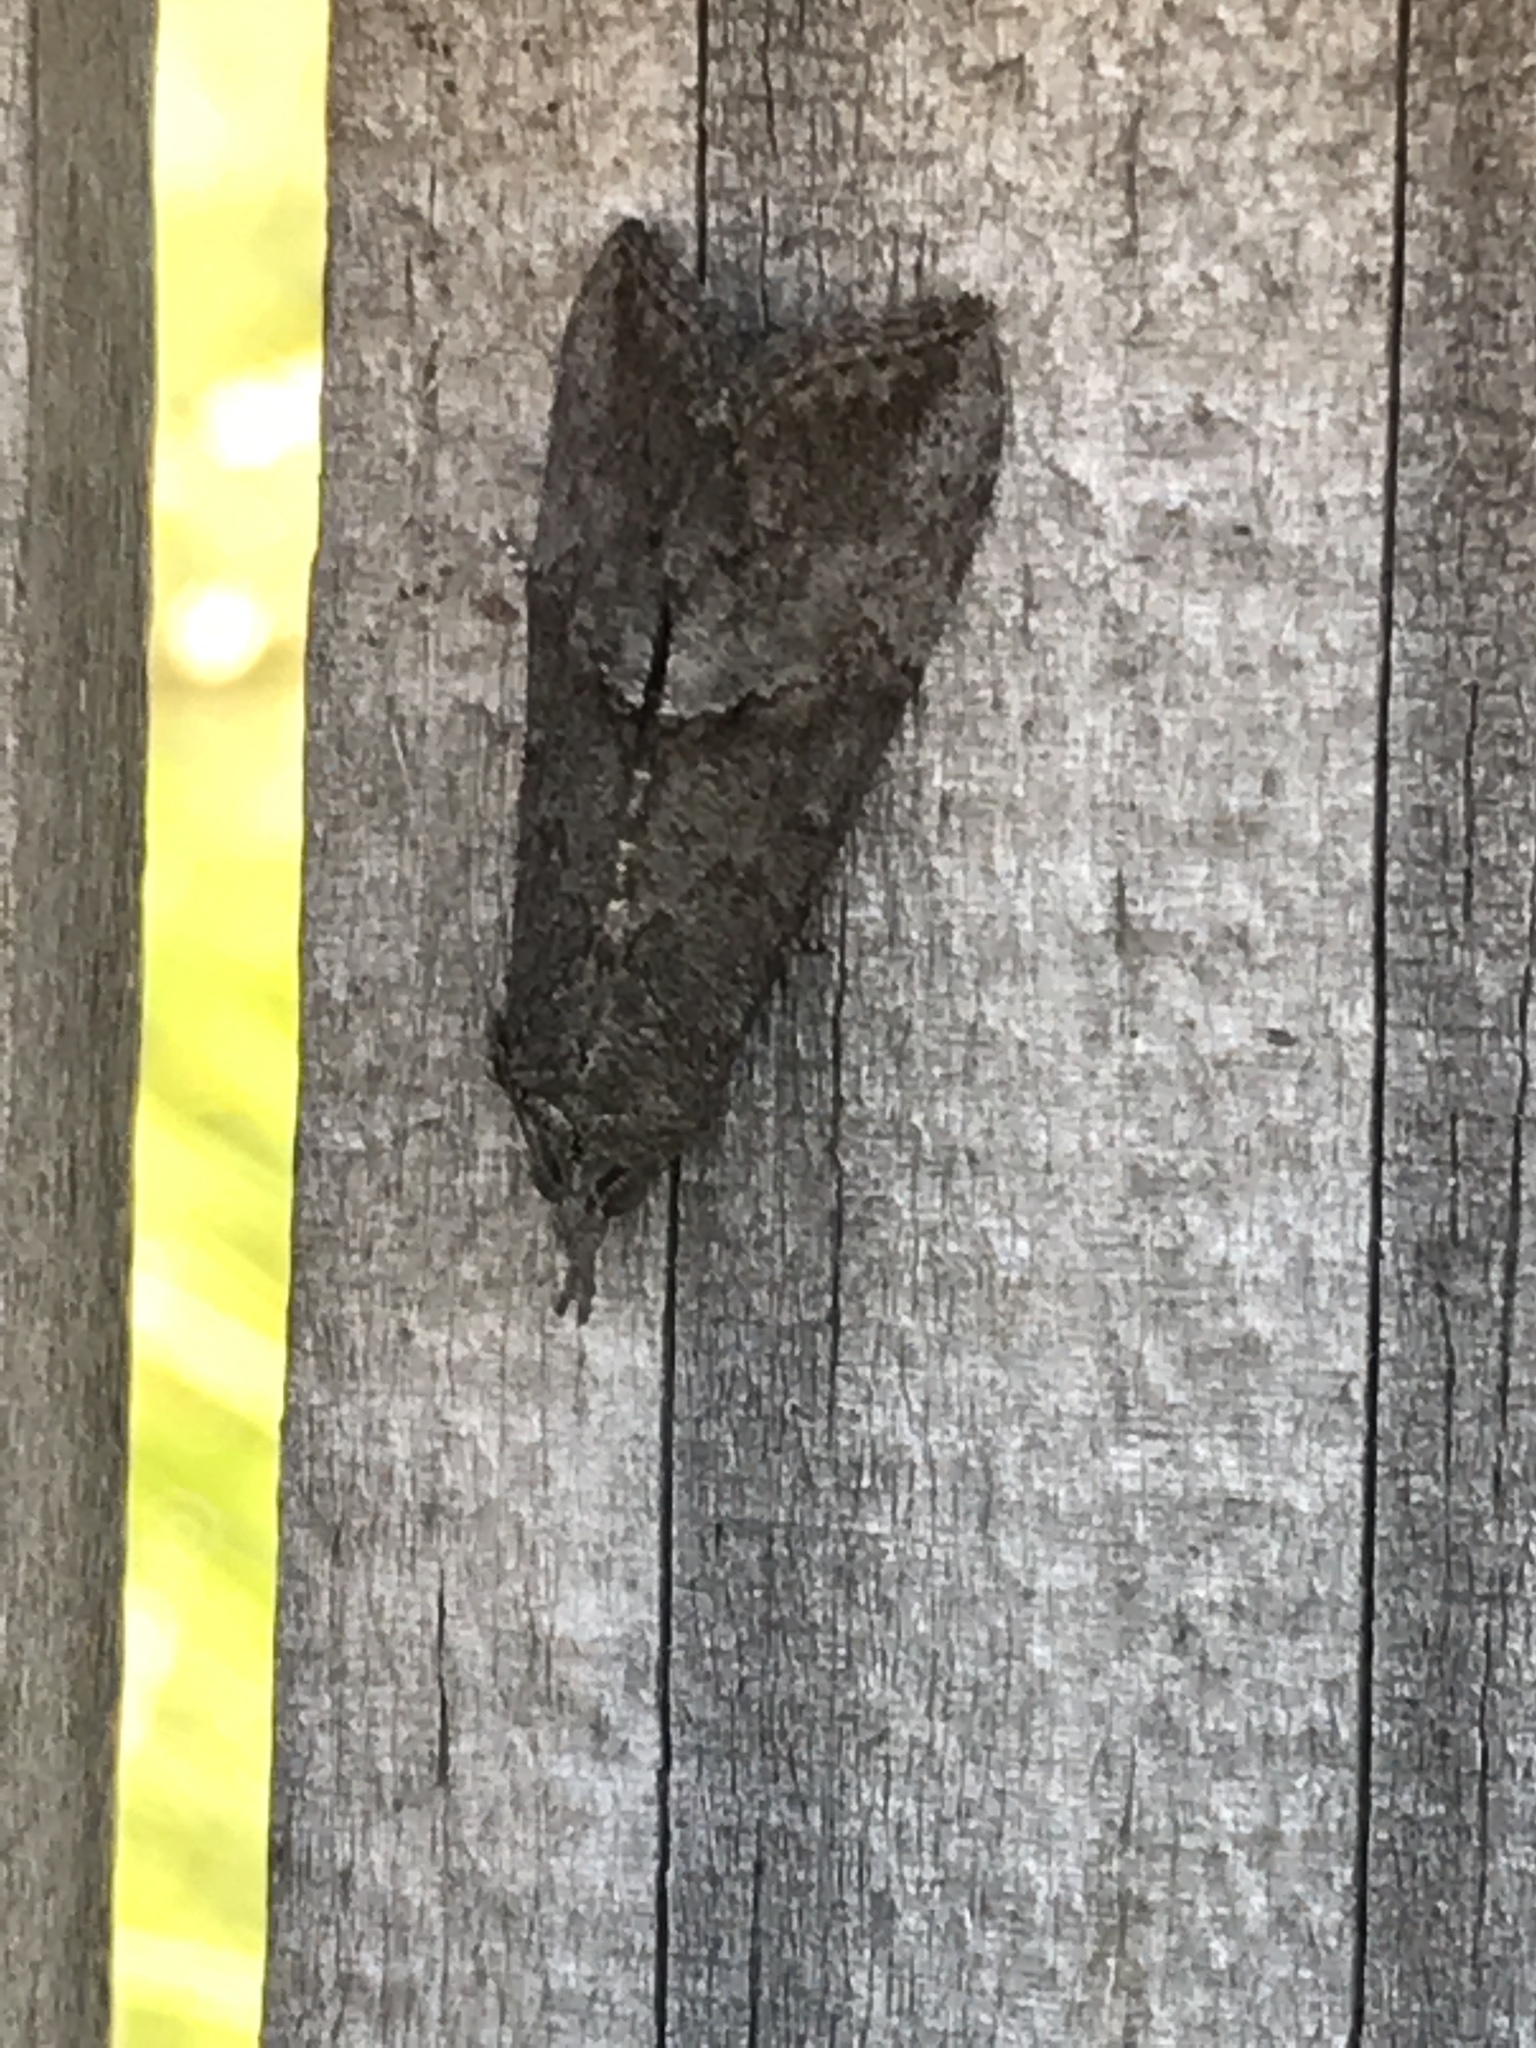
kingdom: Animalia
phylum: Arthropoda
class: Insecta
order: Lepidoptera
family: Erebidae
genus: Hypena
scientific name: Hypena scabra
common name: Green cloverworm
